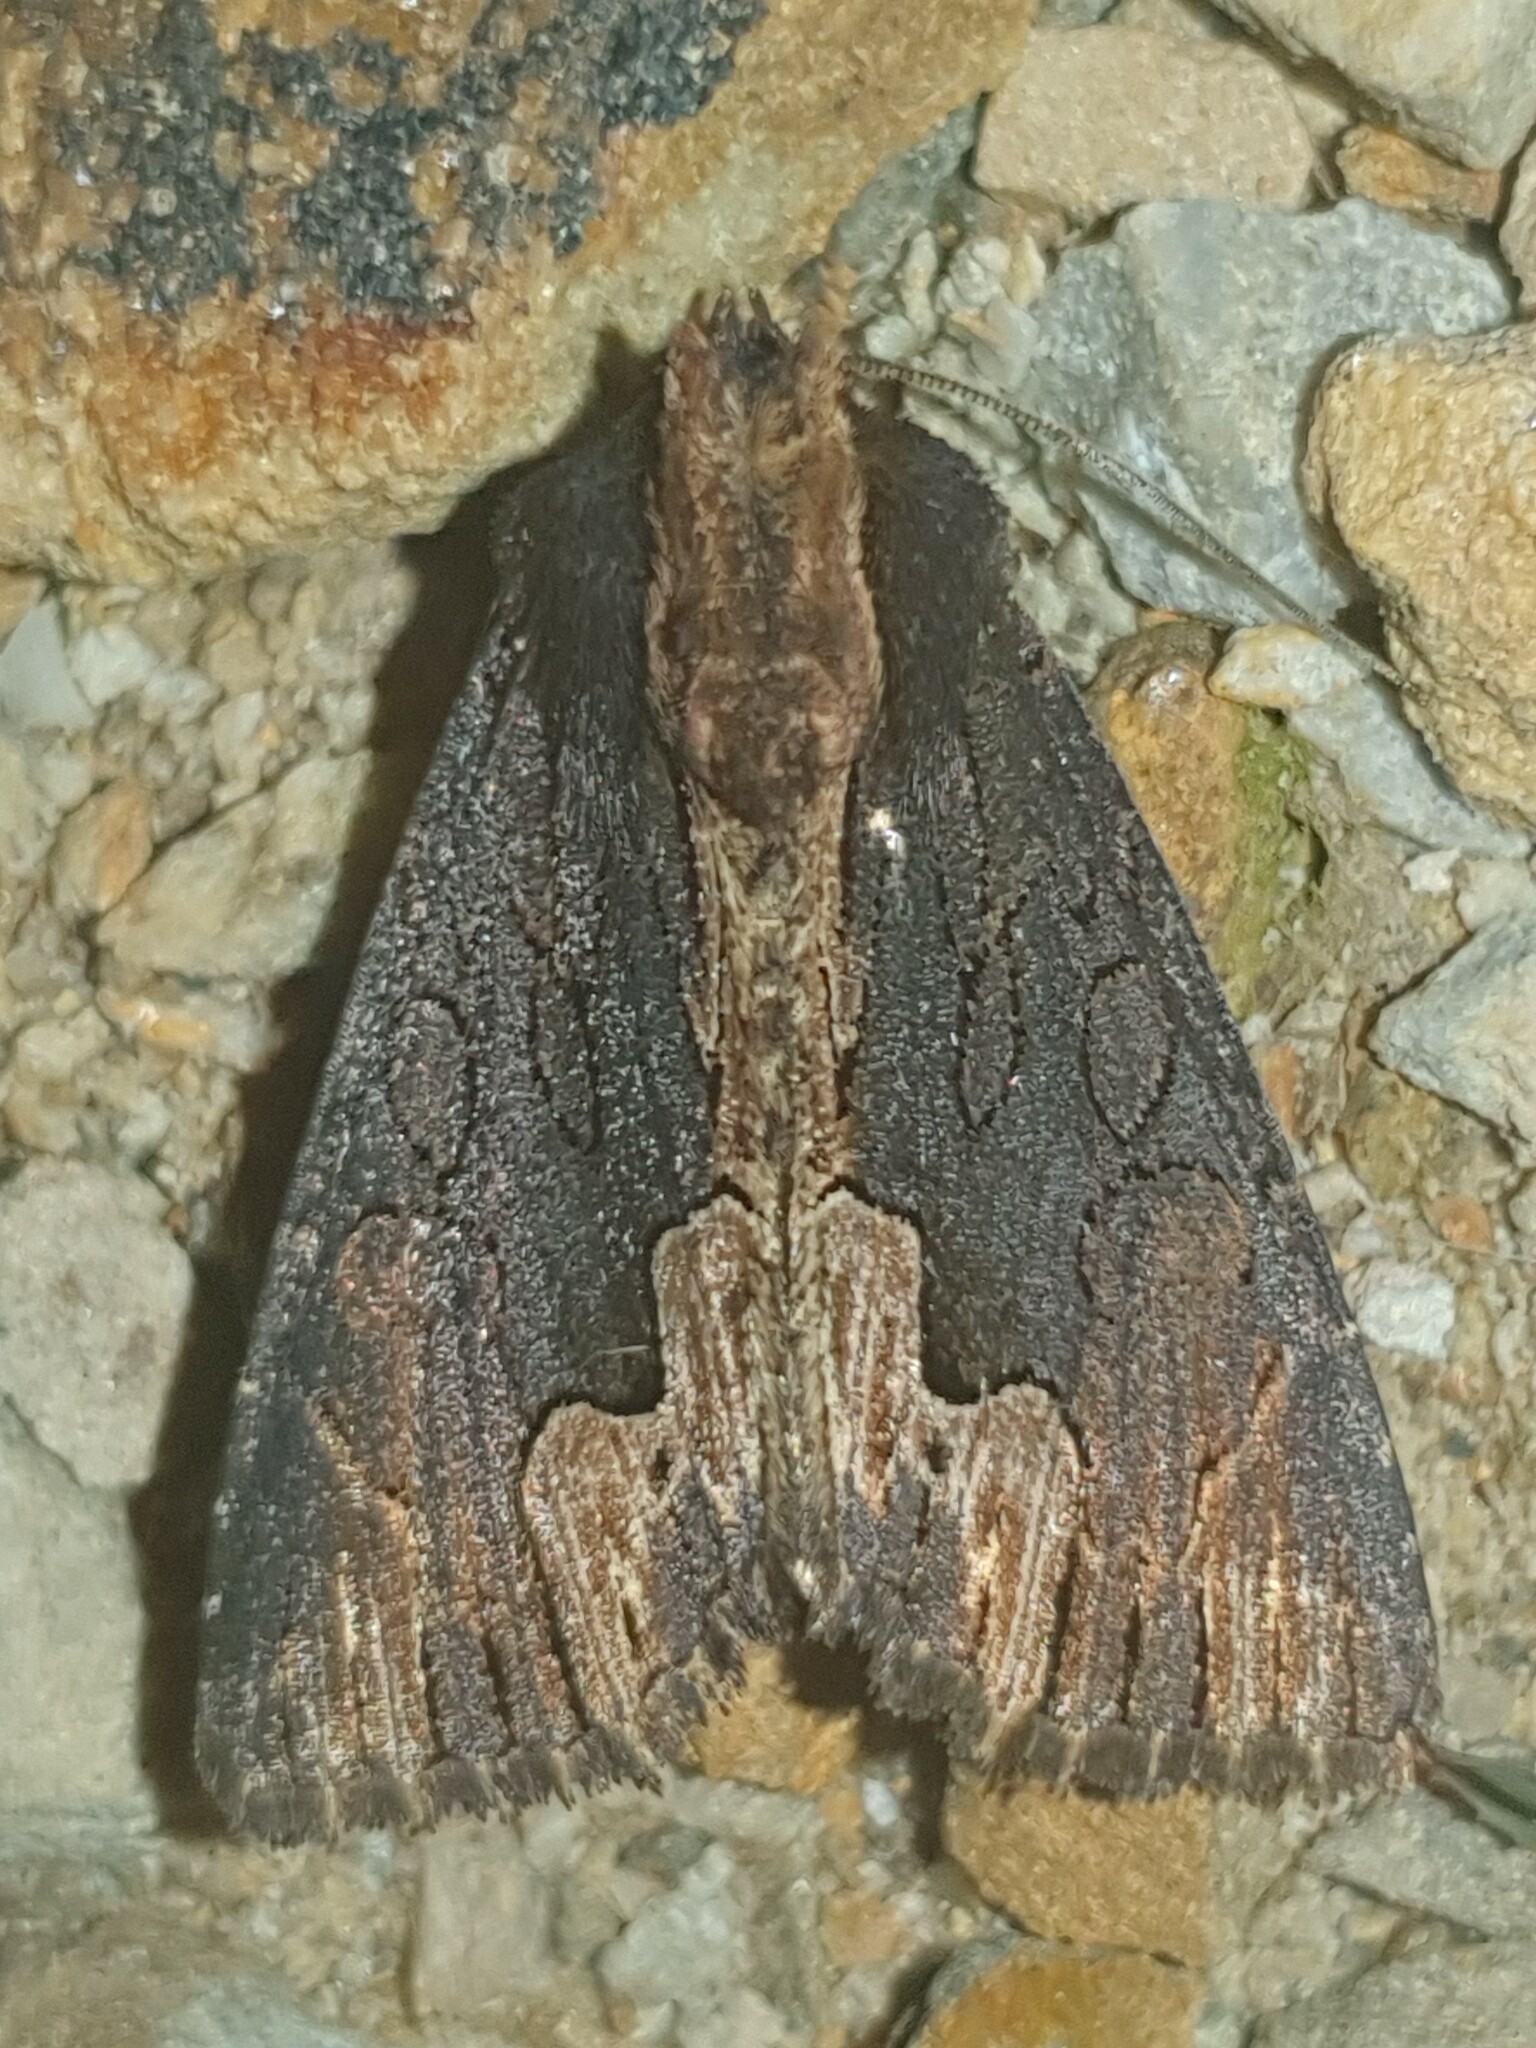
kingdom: Animalia
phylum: Arthropoda
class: Insecta
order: Lepidoptera
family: Noctuidae
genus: Dypterygia
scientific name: Dypterygia scabriuscula
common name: Bird's wing
